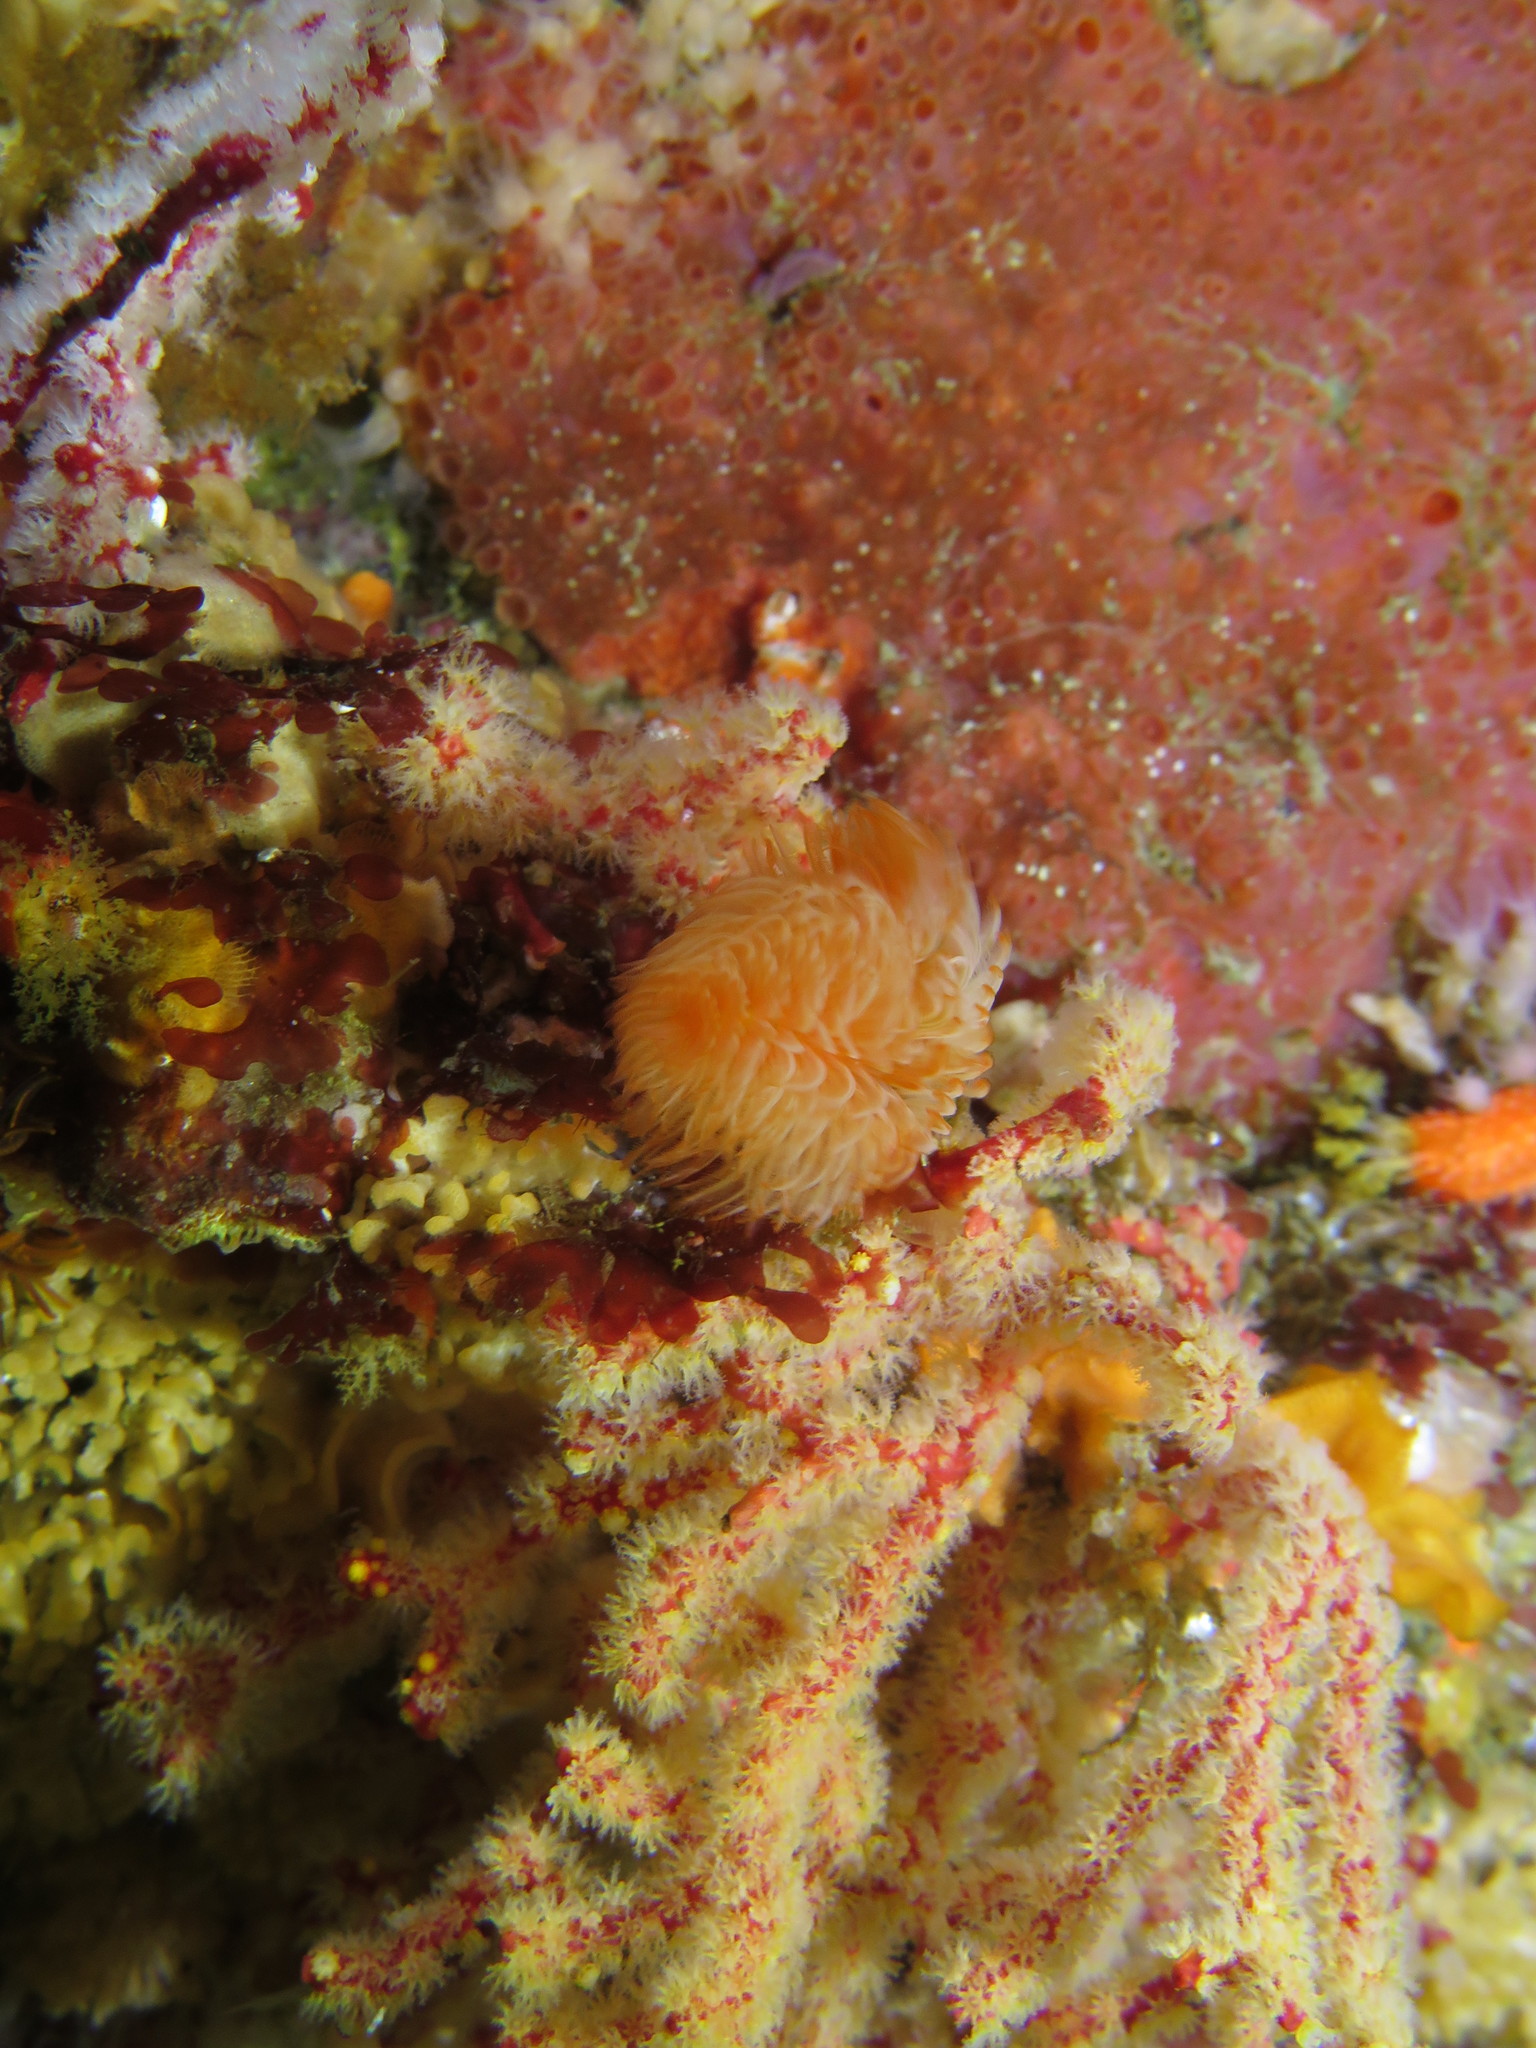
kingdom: Animalia
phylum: Annelida
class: Polychaeta
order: Sabellida
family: Serpulidae
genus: Protula
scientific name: Protula bispiralis
